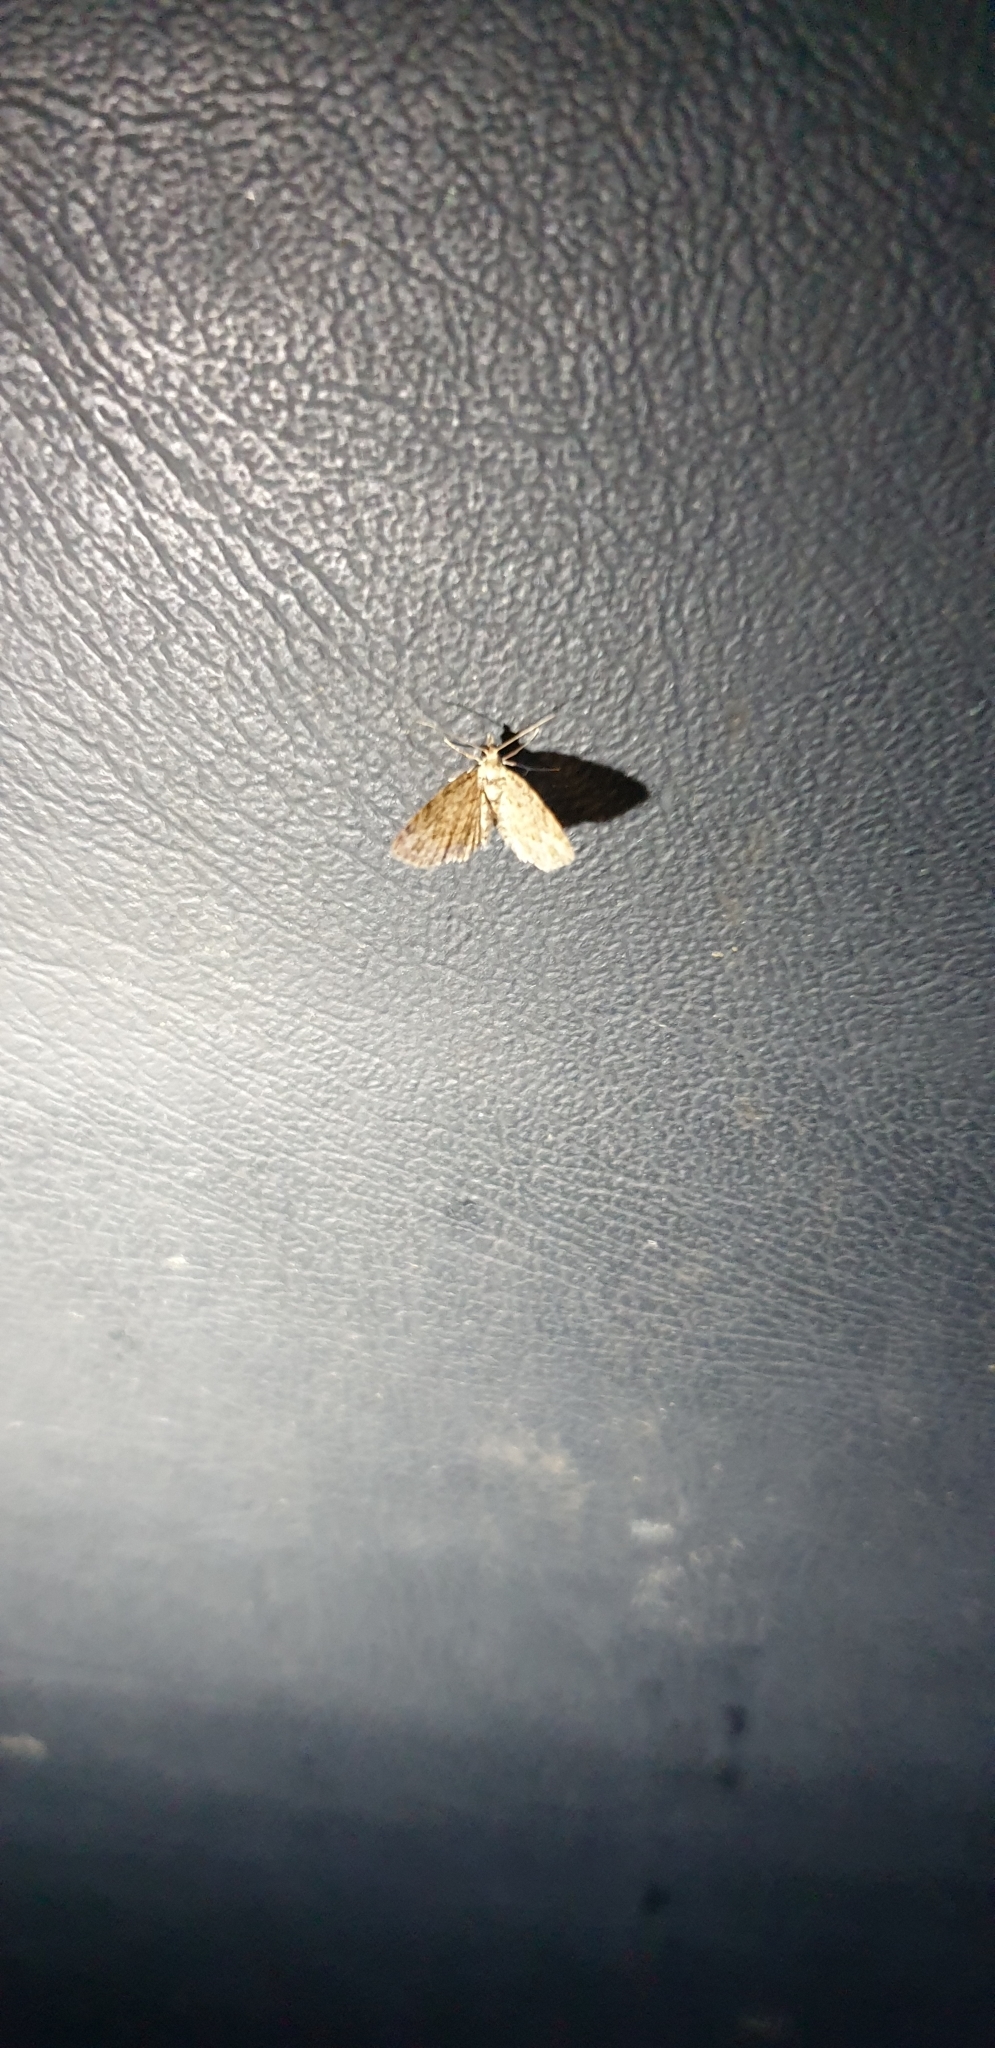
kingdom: Animalia
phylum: Arthropoda
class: Insecta
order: Lepidoptera
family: Geometridae
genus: Chloroclystis
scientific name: Chloroclystis pyrrholopha
